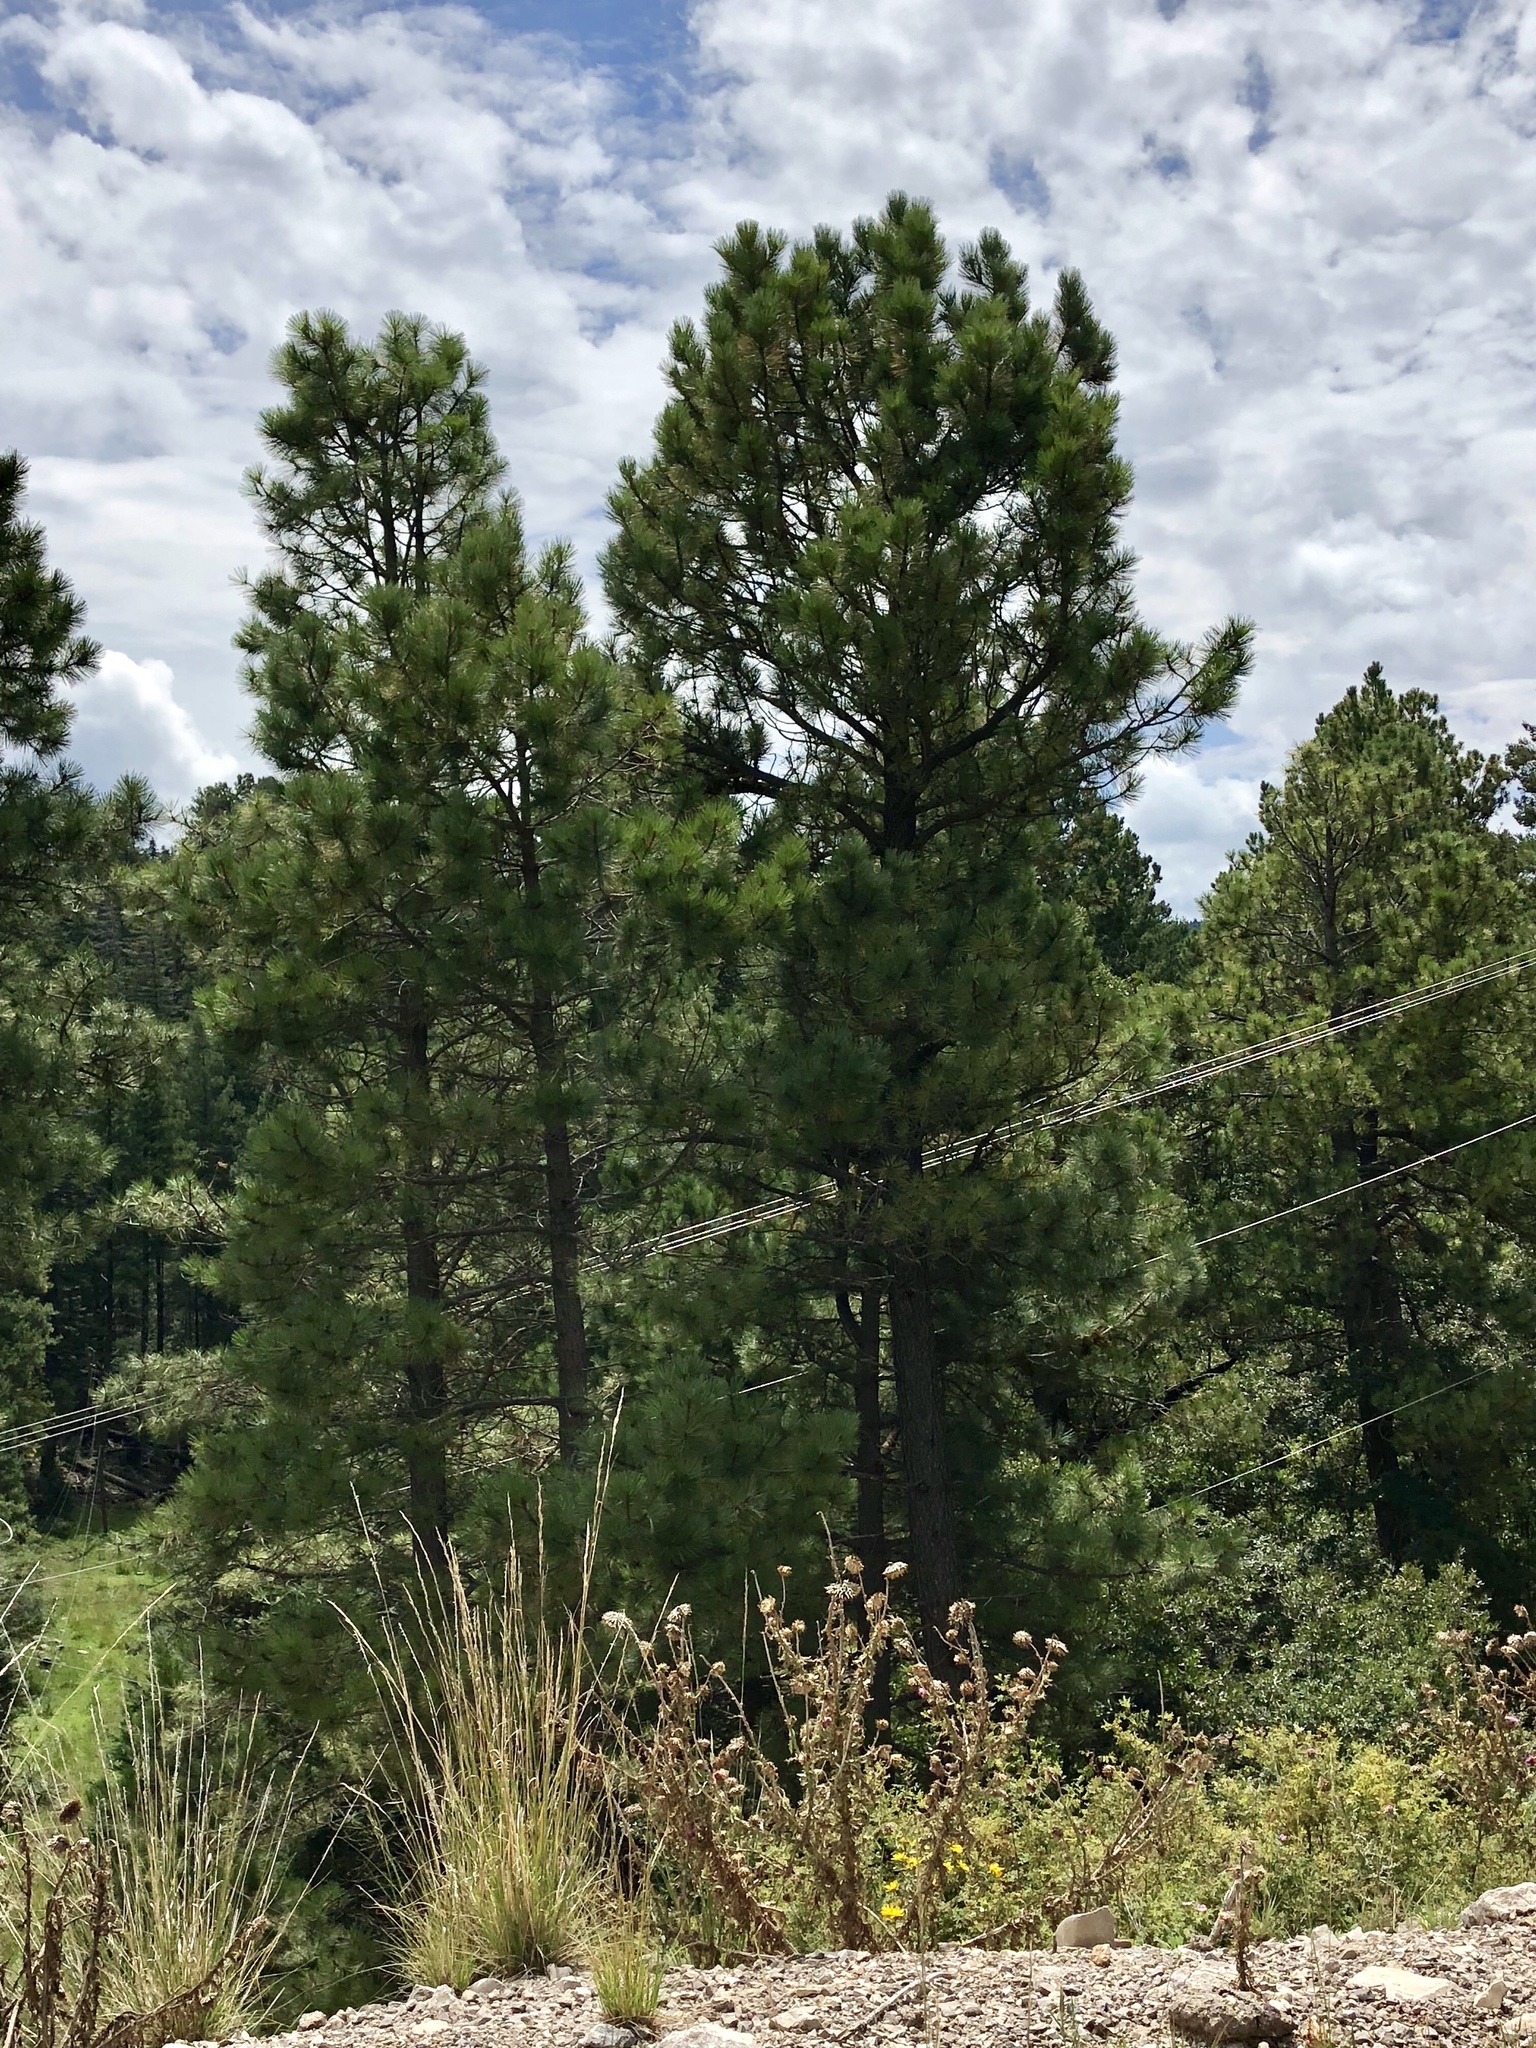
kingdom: Plantae
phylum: Tracheophyta
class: Pinopsida
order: Pinales
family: Pinaceae
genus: Pinus
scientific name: Pinus ponderosa
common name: Western yellow-pine
